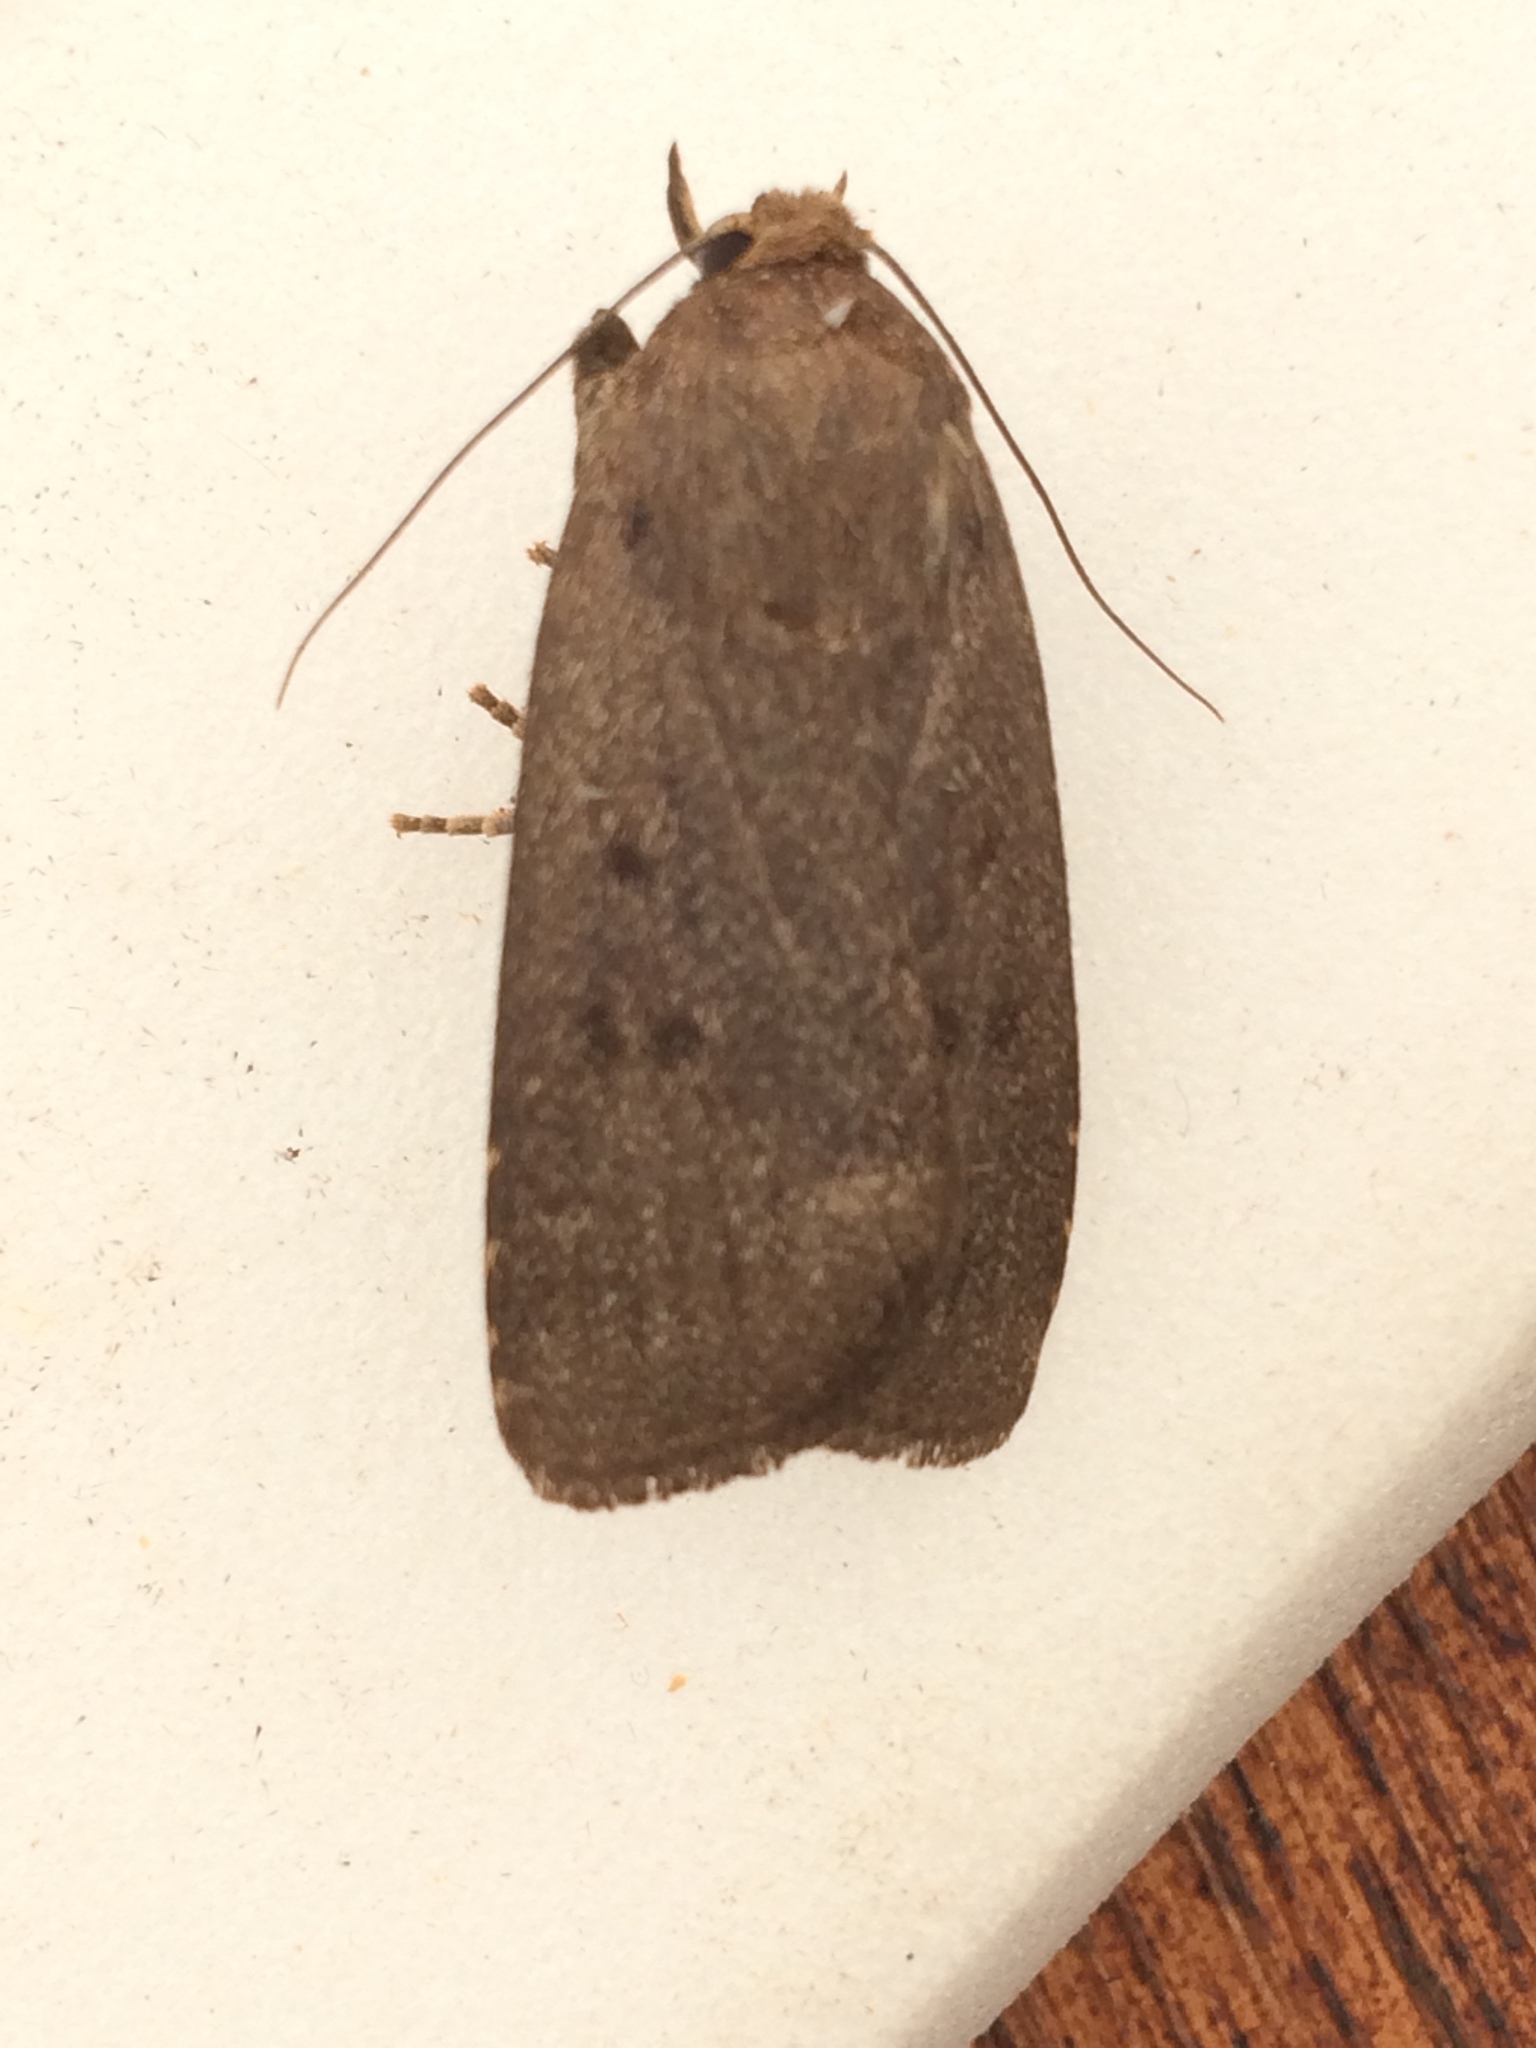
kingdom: Animalia
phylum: Arthropoda
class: Insecta
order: Lepidoptera
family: Noctuidae
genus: Amphipyra
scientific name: Amphipyra tragopoginis
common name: Mouse moth
